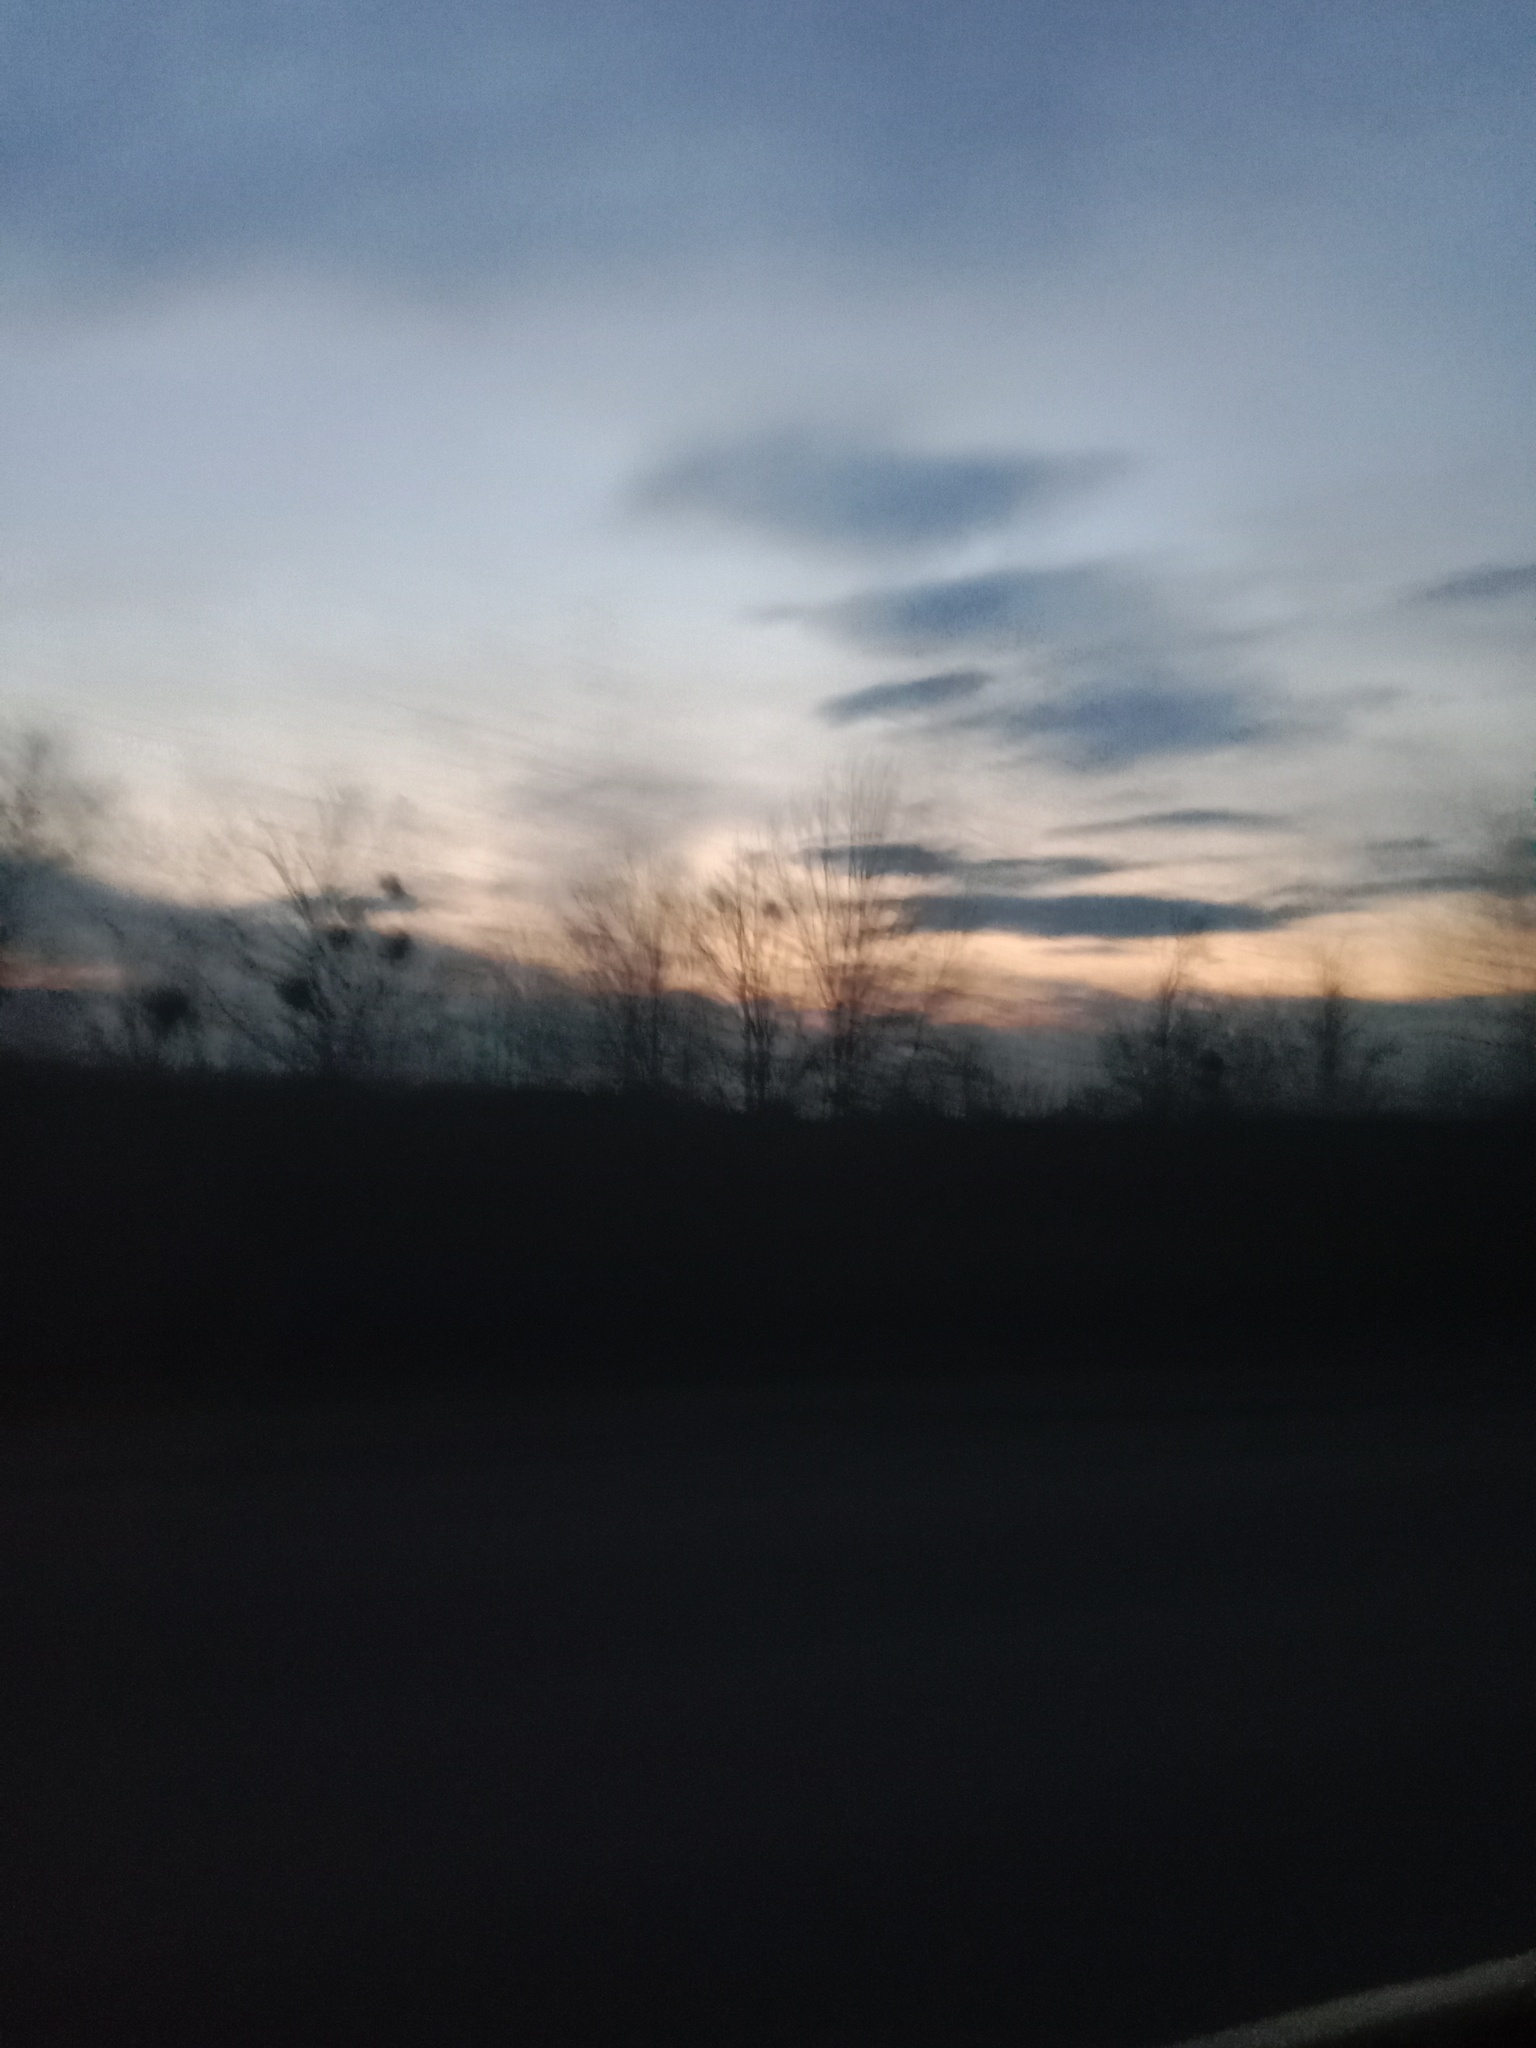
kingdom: Plantae
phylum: Tracheophyta
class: Magnoliopsida
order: Santalales
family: Viscaceae
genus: Viscum
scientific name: Viscum album
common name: Mistletoe
